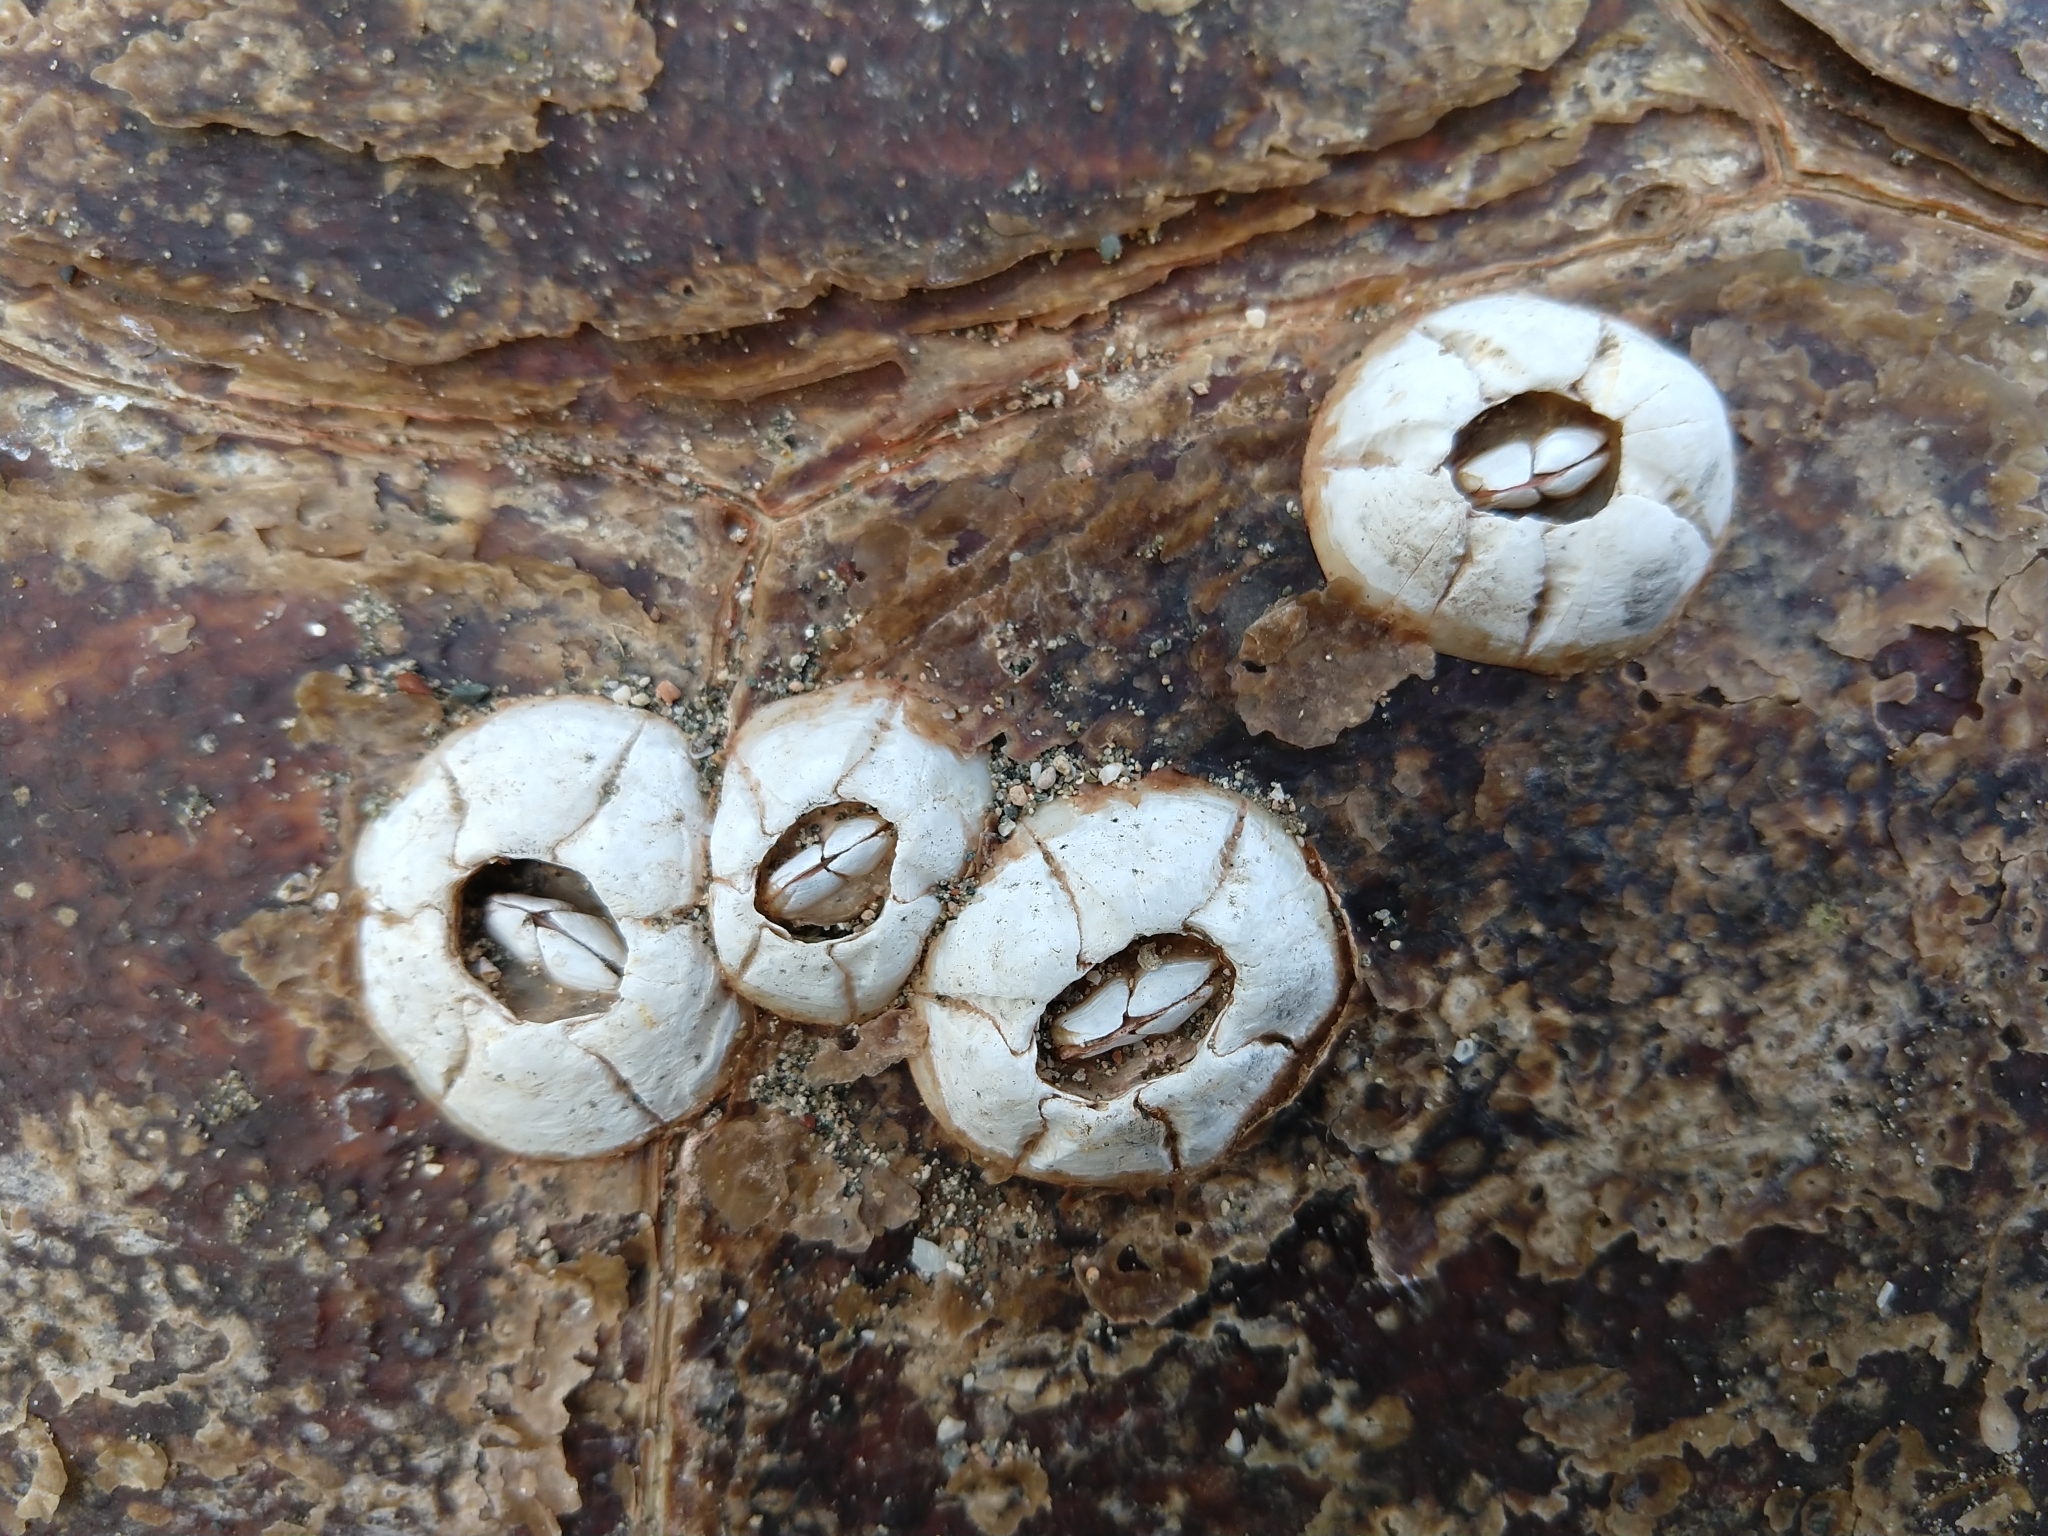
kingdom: Animalia
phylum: Arthropoda
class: Maxillopoda
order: Sessilia
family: Chelonibiidae
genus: Chelonibia
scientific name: Chelonibia testudinaria
